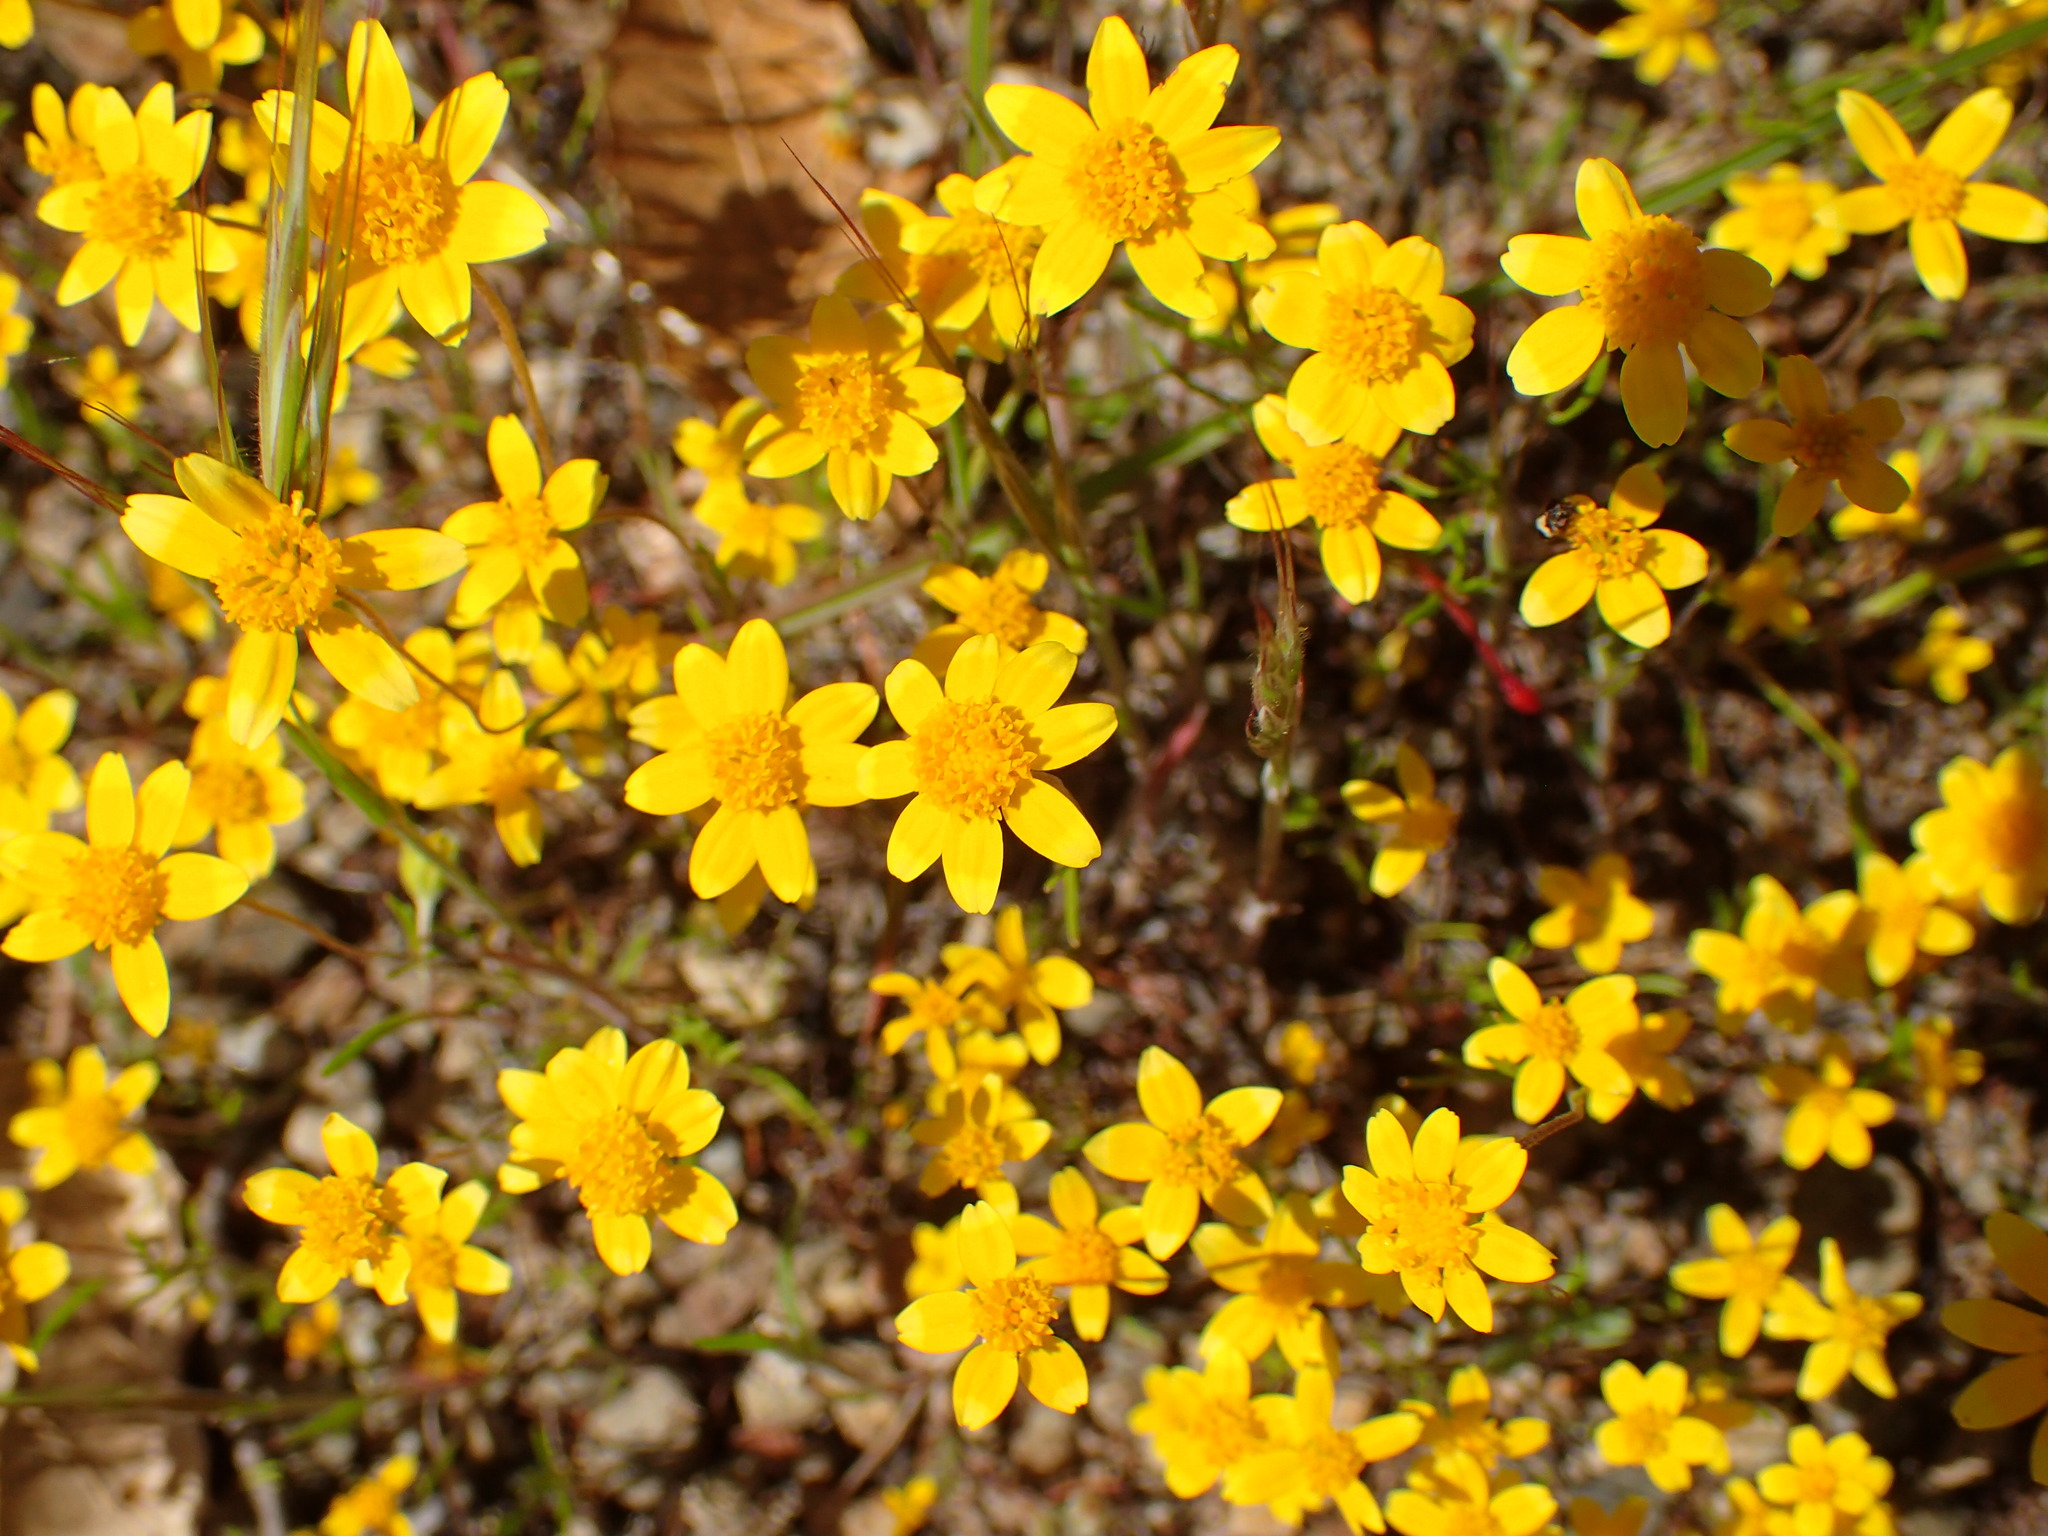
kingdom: Plantae
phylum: Tracheophyta
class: Magnoliopsida
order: Asterales
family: Asteraceae
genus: Lasthenia
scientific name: Lasthenia gracilis
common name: Common goldfields
